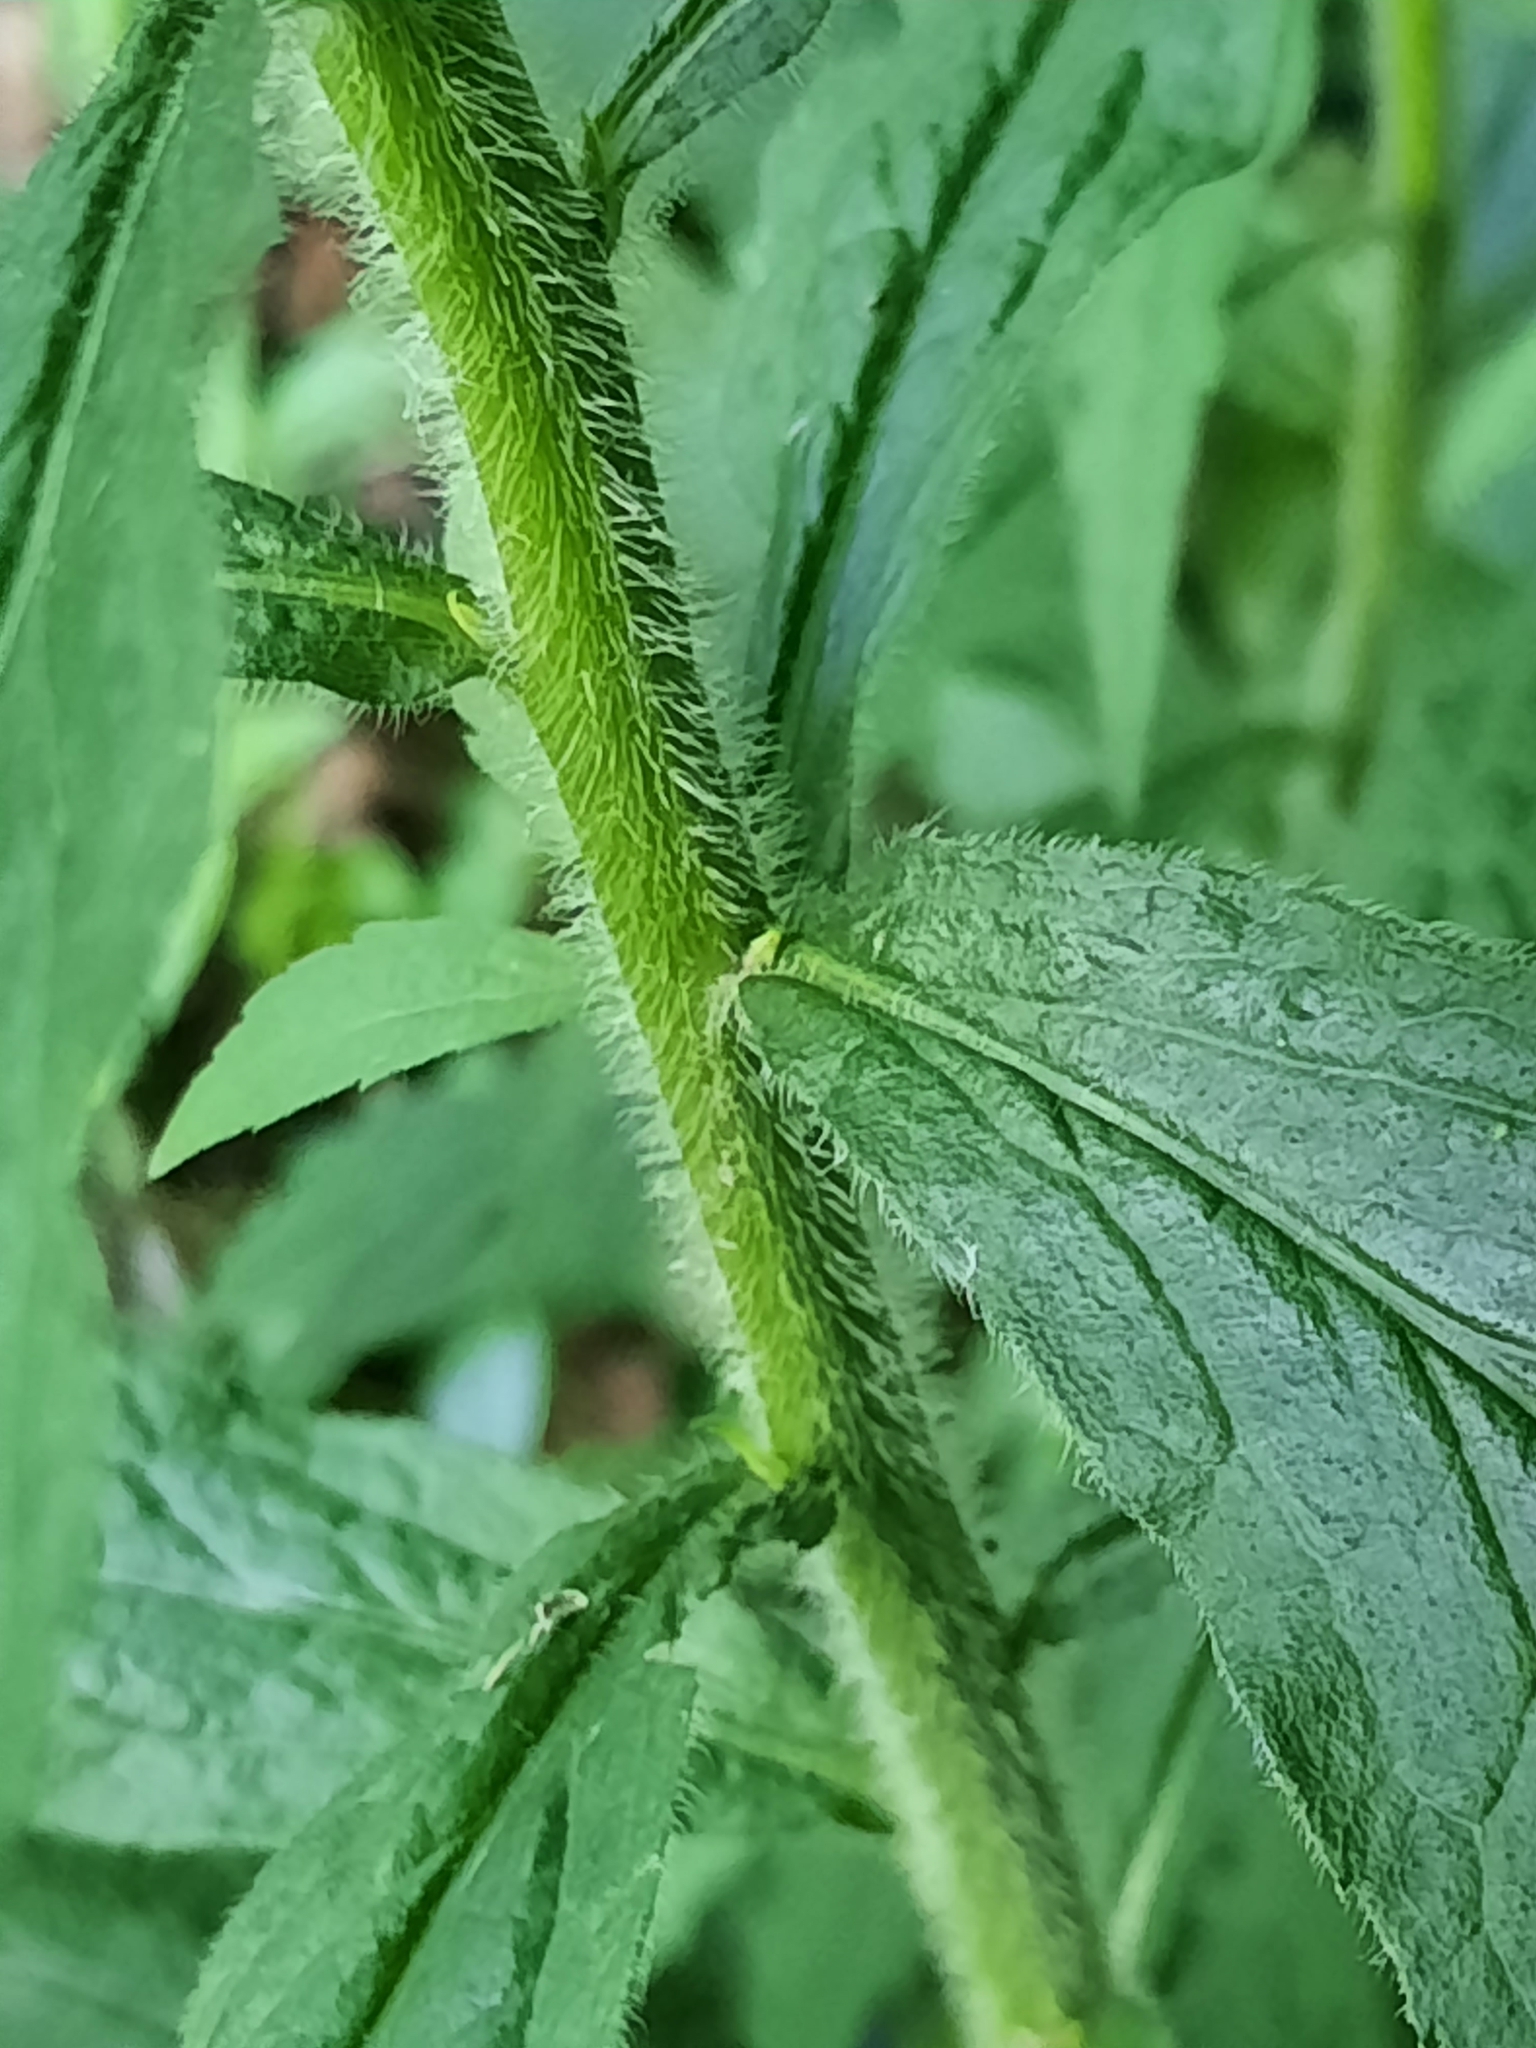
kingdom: Plantae
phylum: Tracheophyta
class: Magnoliopsida
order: Asterales
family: Asteraceae
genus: Solidago
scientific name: Solidago rugosa
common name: Rough-stemmed goldenrod
